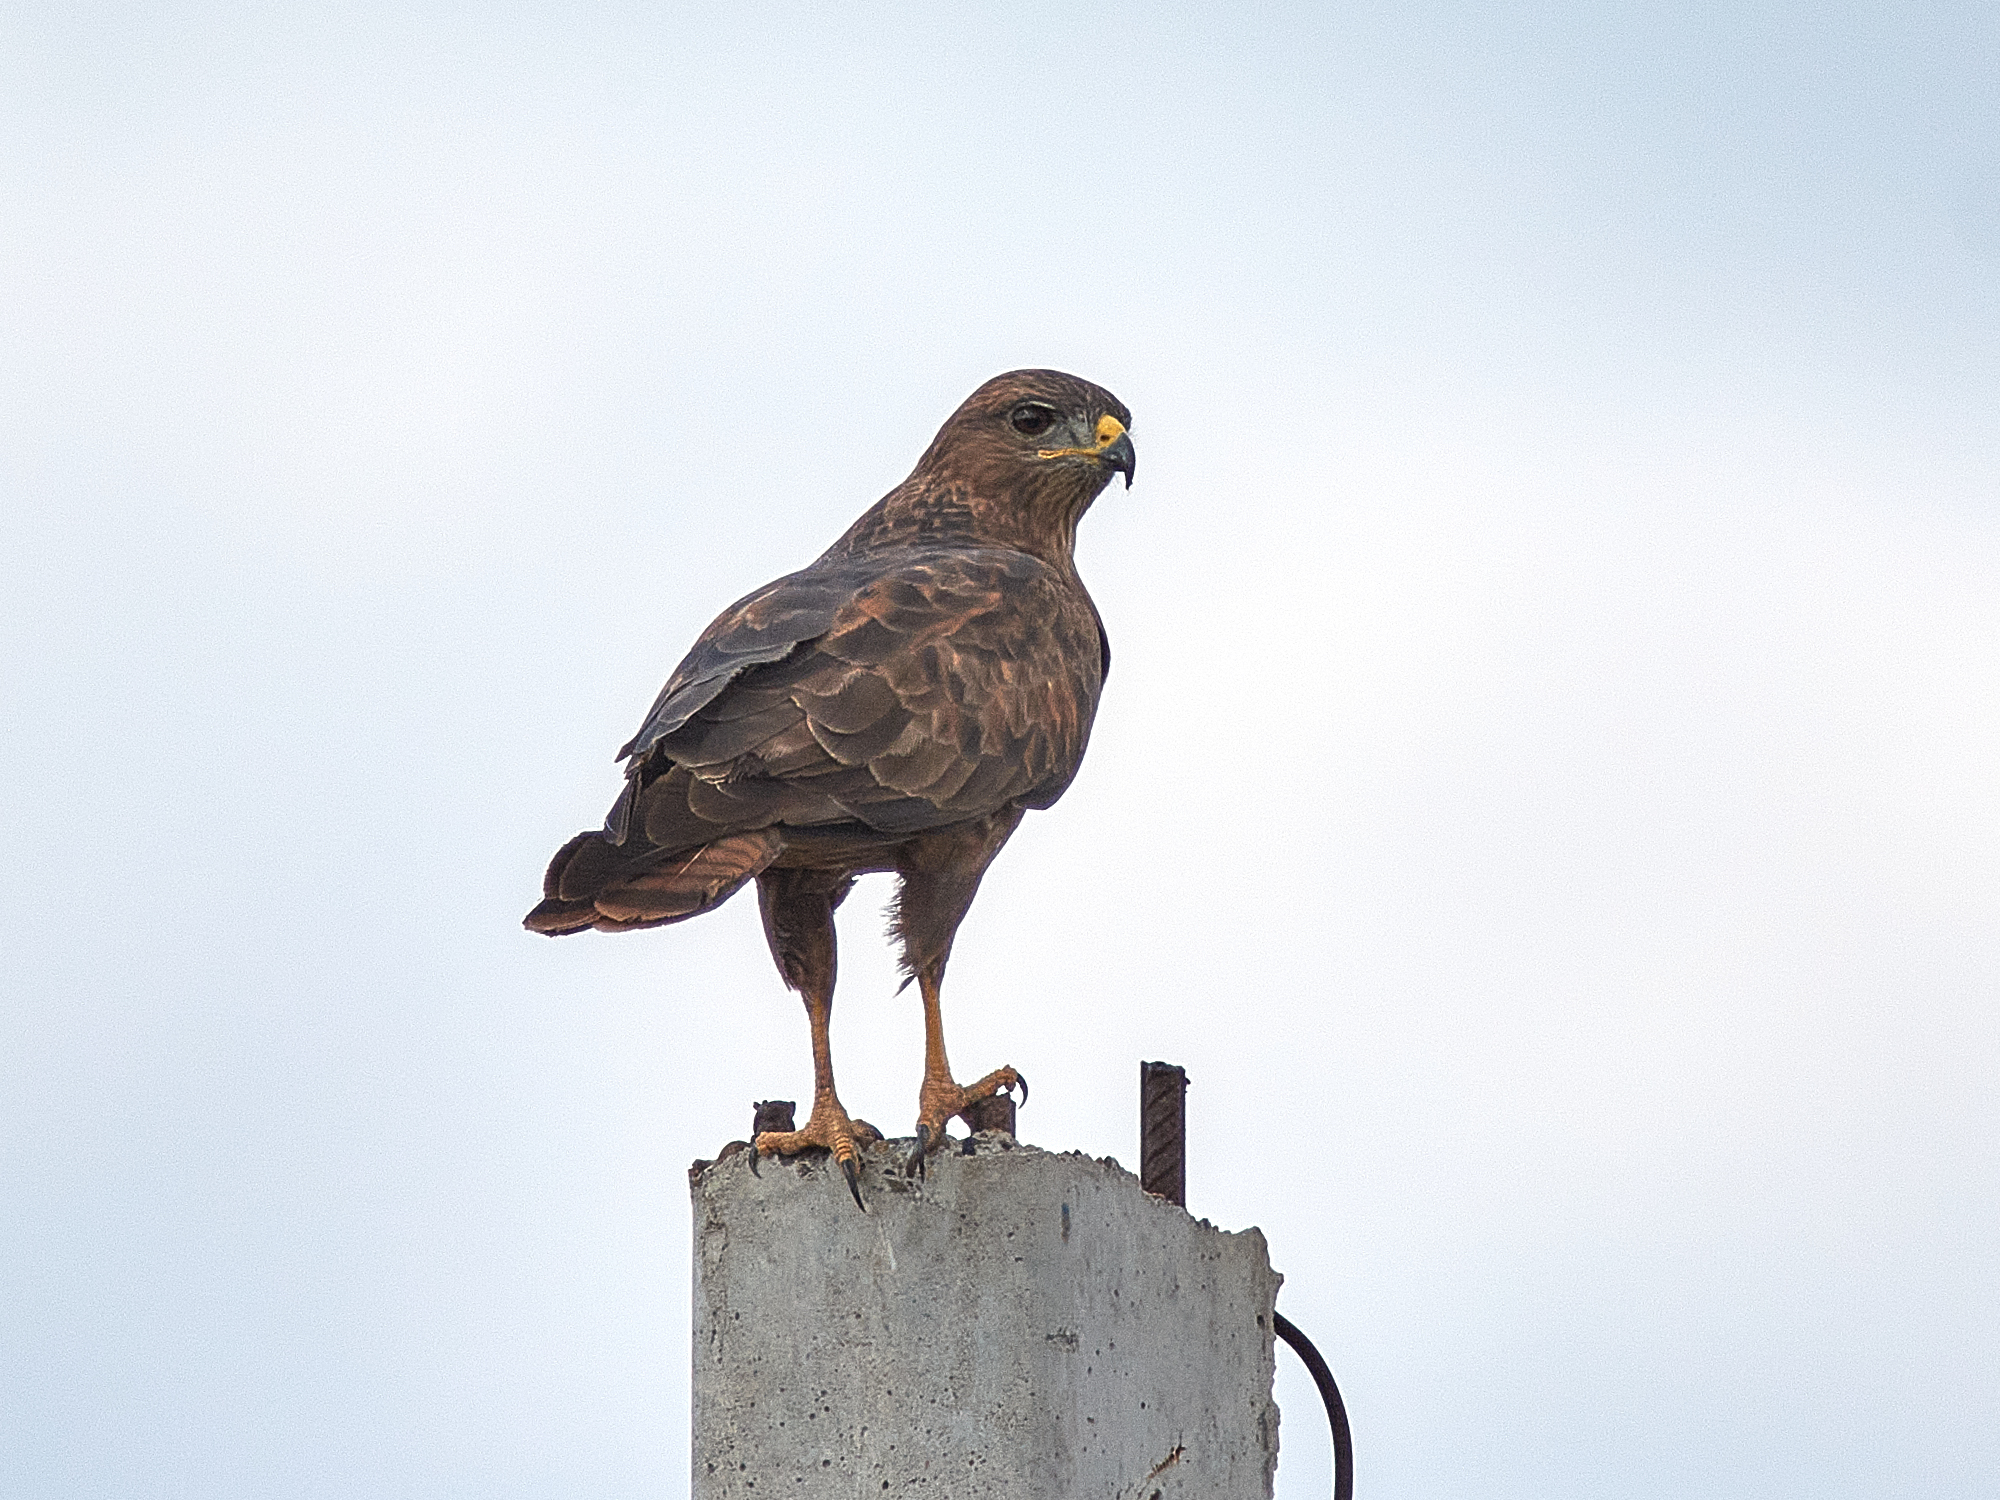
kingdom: Animalia
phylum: Chordata
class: Aves
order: Accipitriformes
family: Accipitridae
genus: Buteo
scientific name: Buteo buteo
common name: Common buzzard
